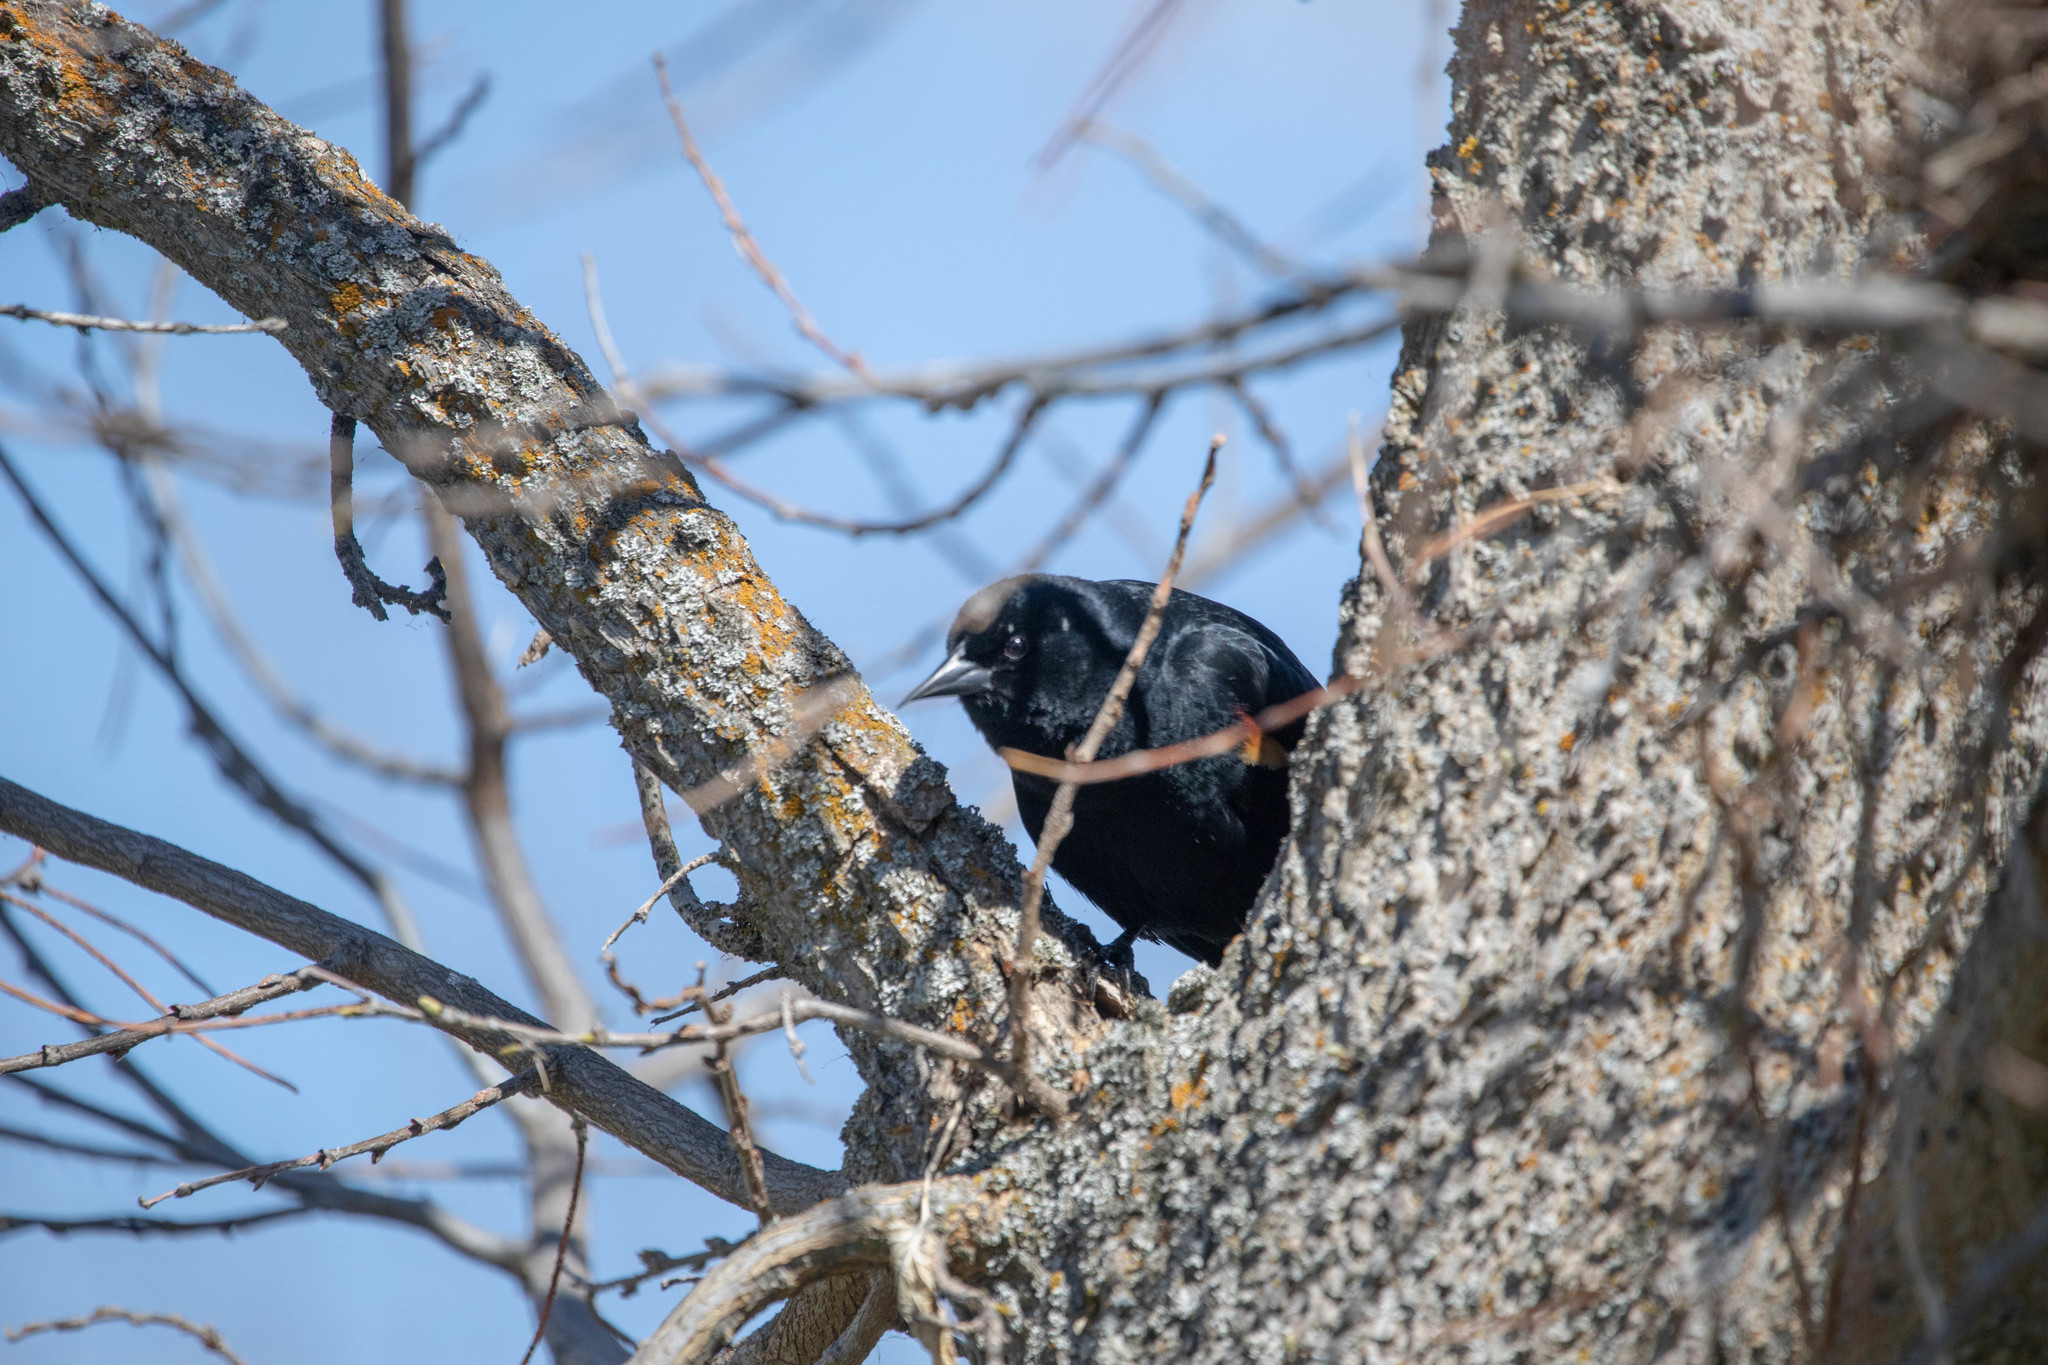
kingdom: Animalia
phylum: Chordata
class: Aves
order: Passeriformes
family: Icteridae
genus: Agelaius
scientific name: Agelaius phoeniceus
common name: Red-winged blackbird
